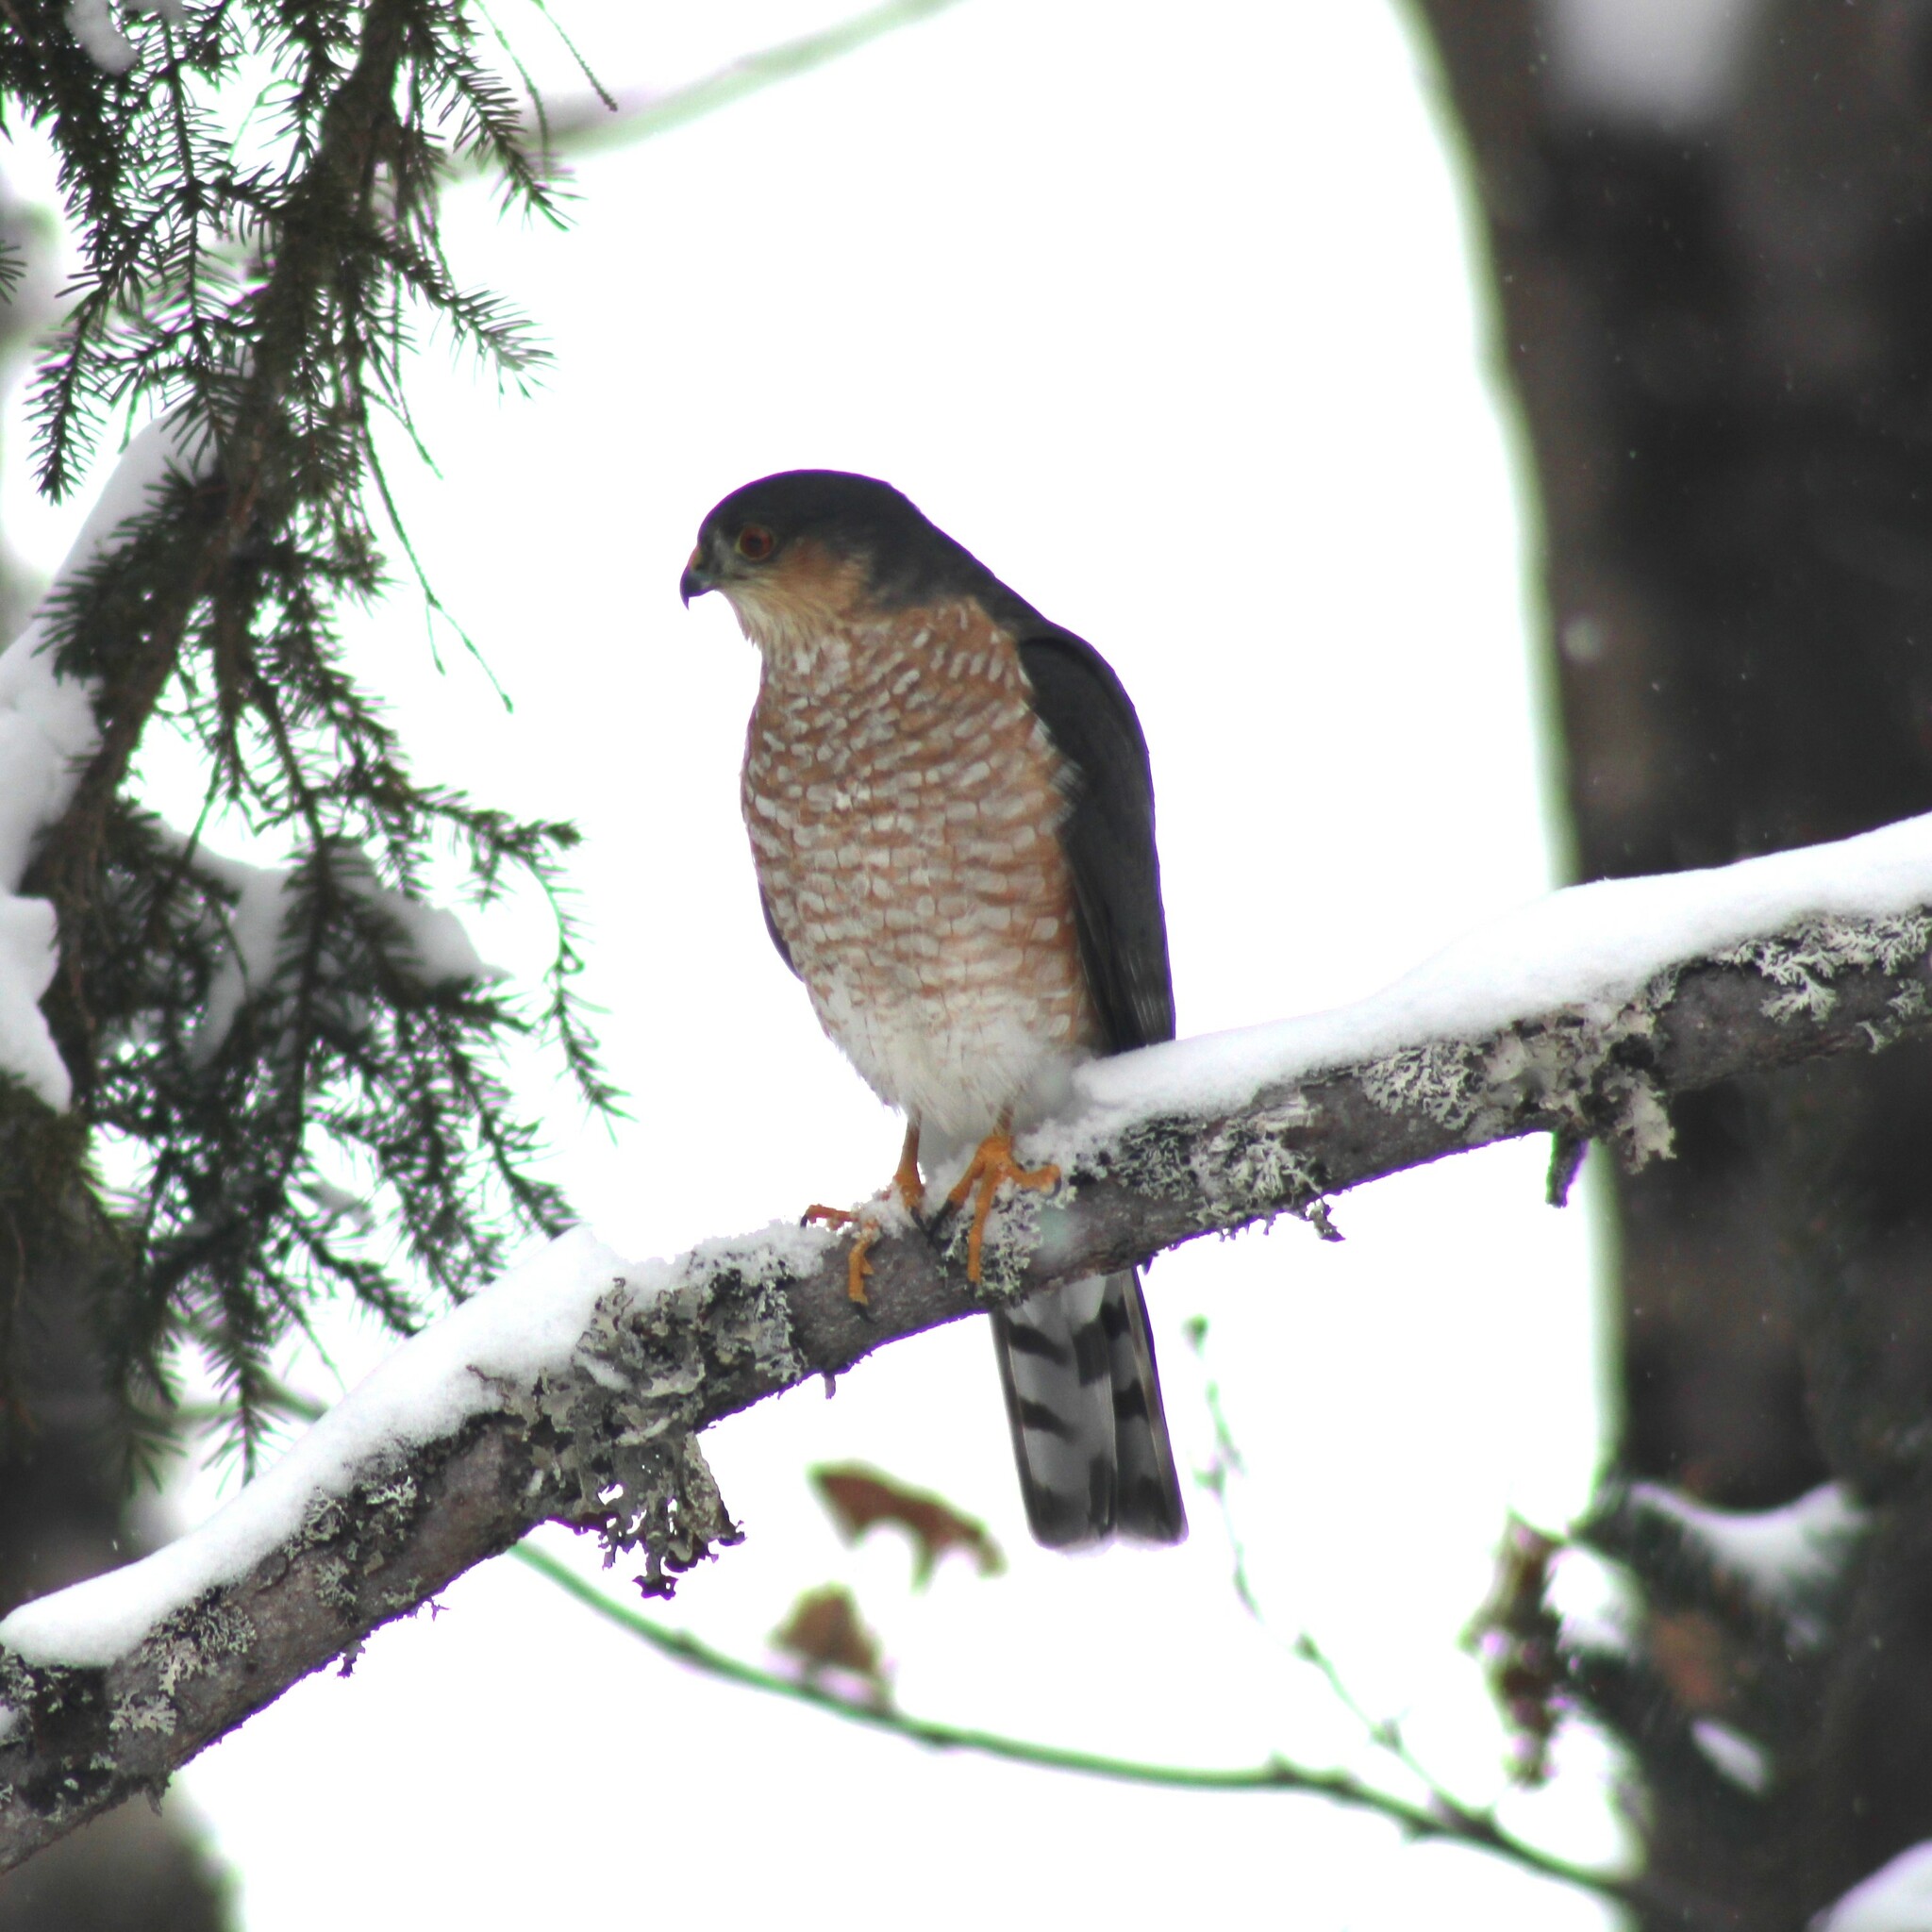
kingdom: Animalia
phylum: Chordata
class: Aves
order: Accipitriformes
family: Accipitridae
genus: Accipiter
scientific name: Accipiter striatus
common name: Sharp-shinned hawk
